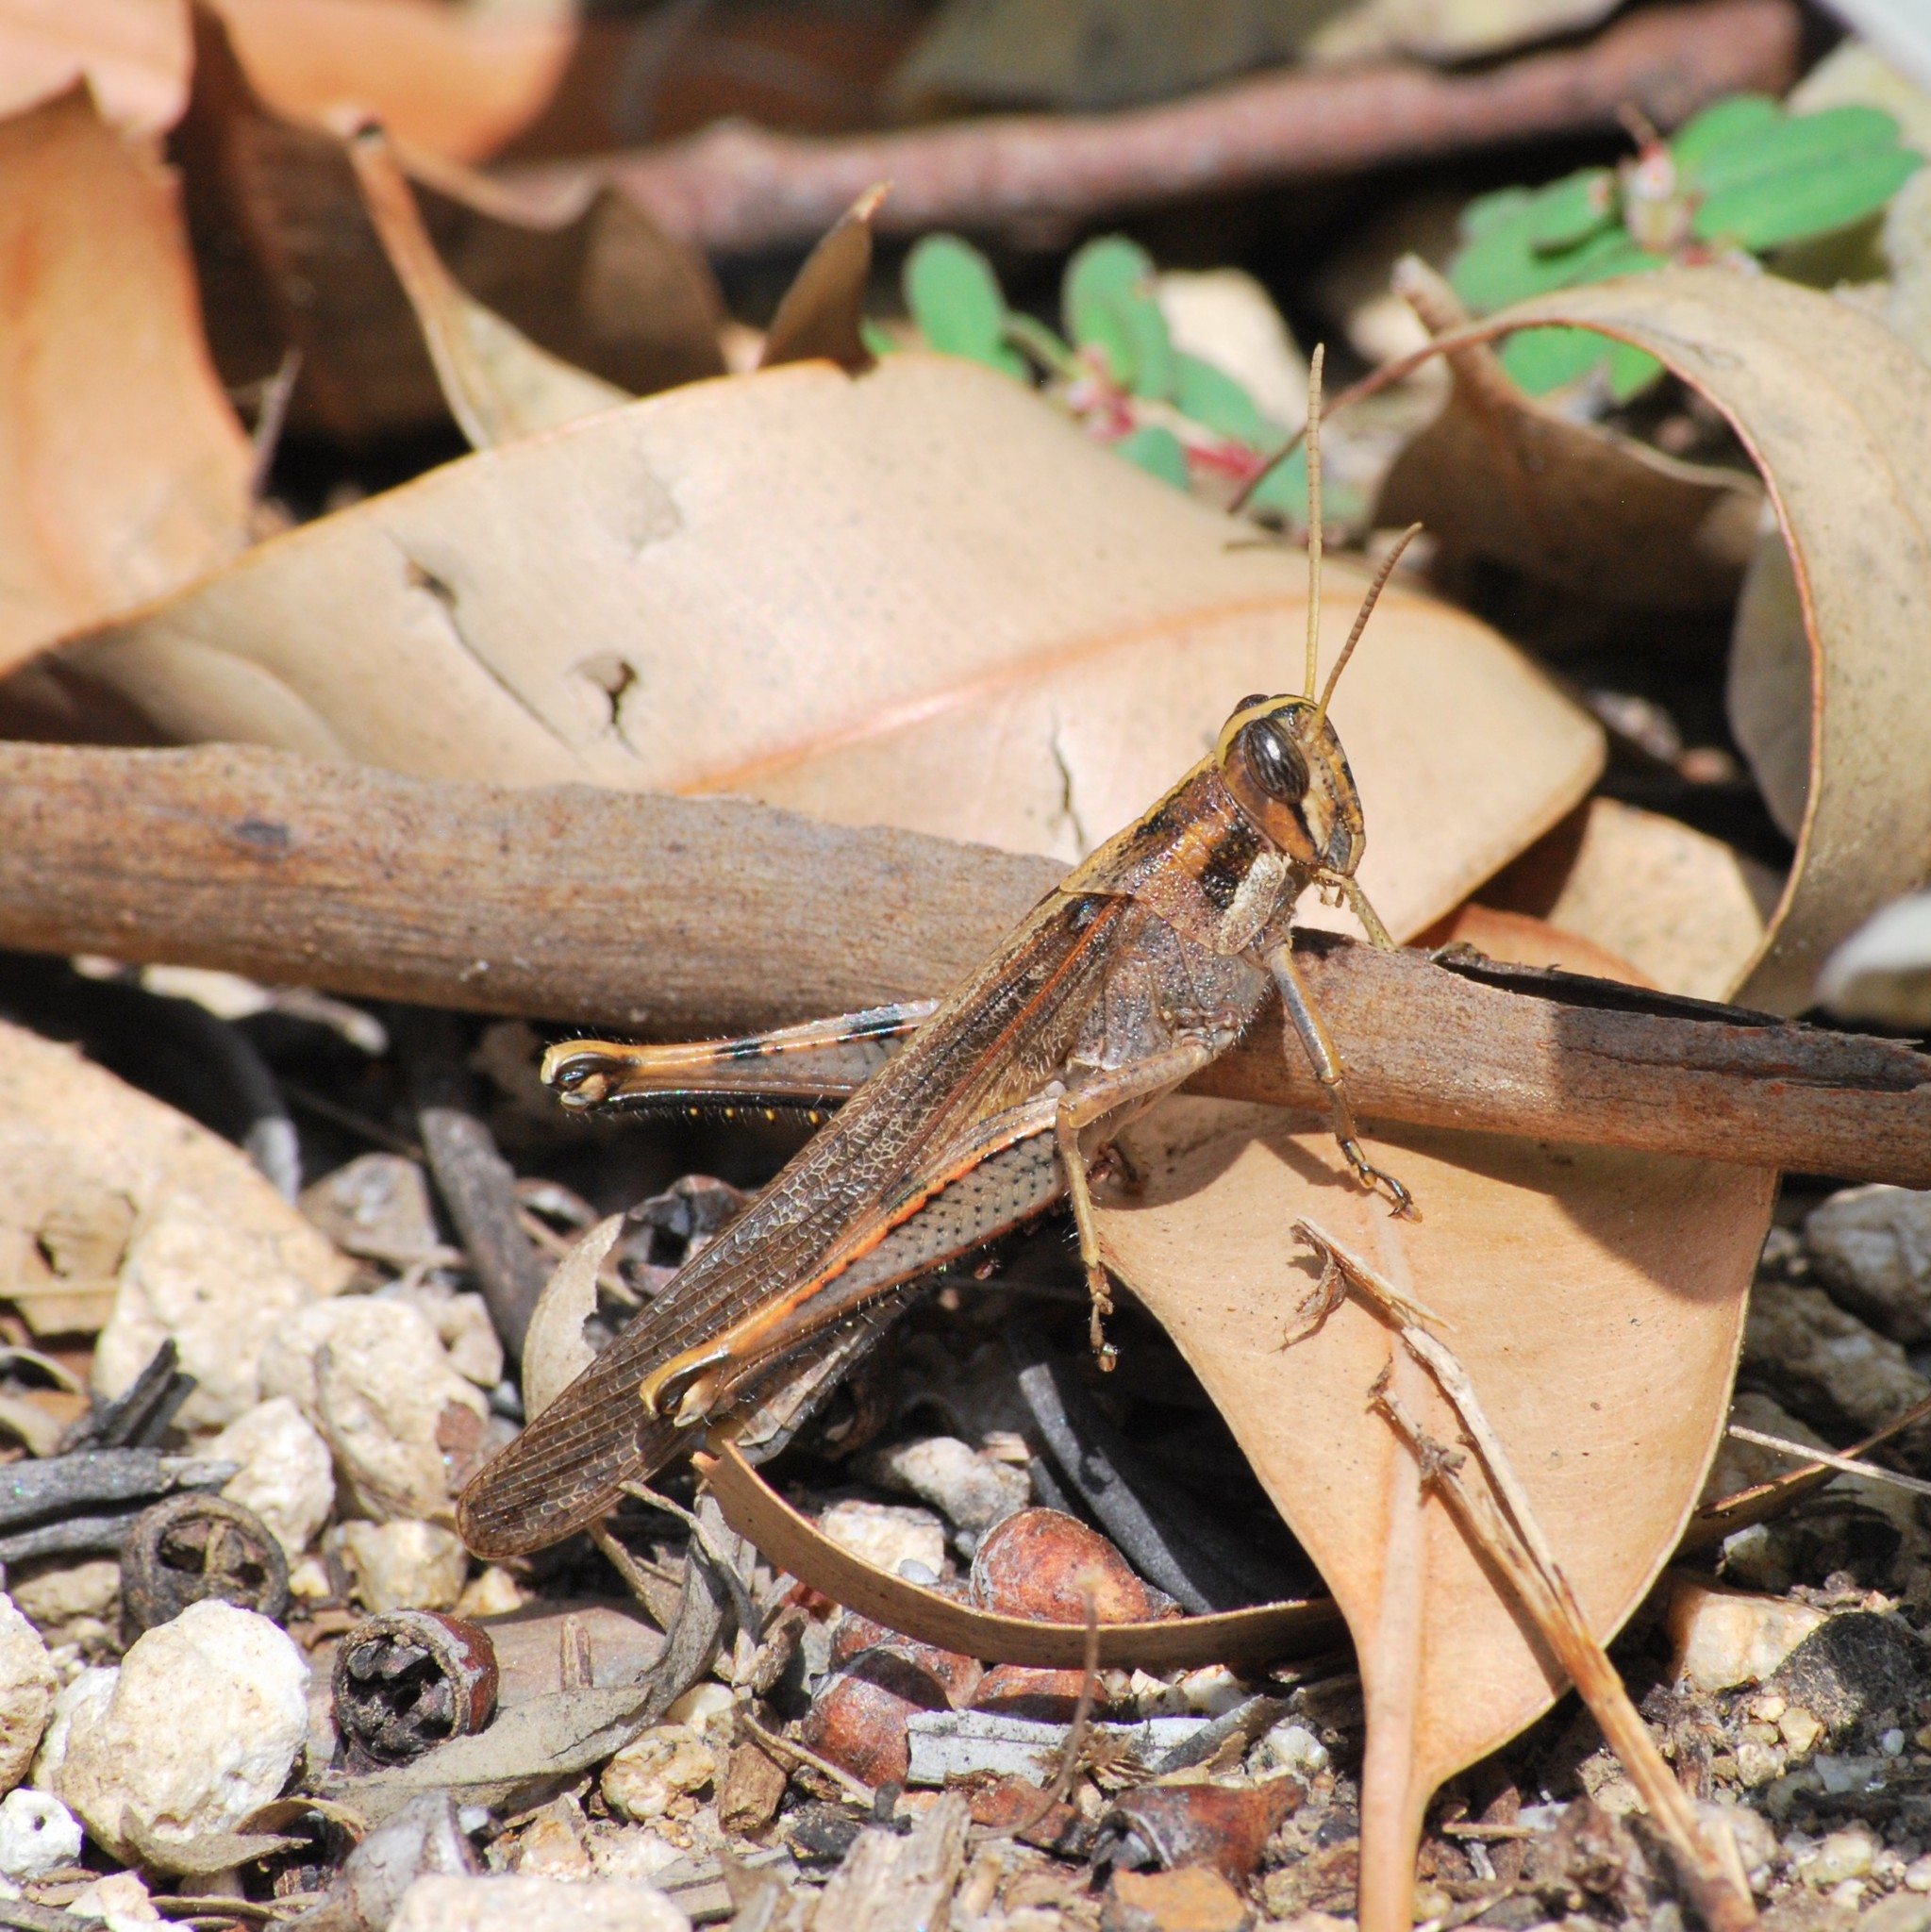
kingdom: Animalia
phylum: Arthropoda
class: Insecta
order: Orthoptera
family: Acrididae
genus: Schistocerca
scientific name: Schistocerca nitens
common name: Vagrant grasshopper
